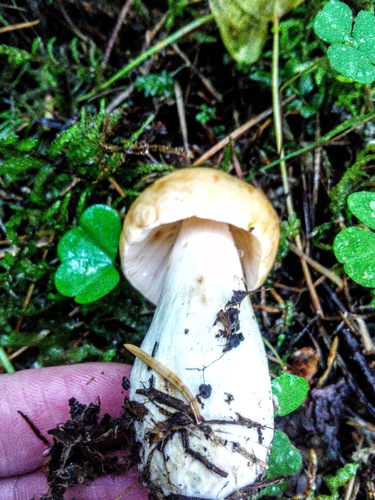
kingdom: Fungi
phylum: Basidiomycota
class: Agaricomycetes
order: Russulales
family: Russulaceae
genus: Russula
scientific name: Russula
